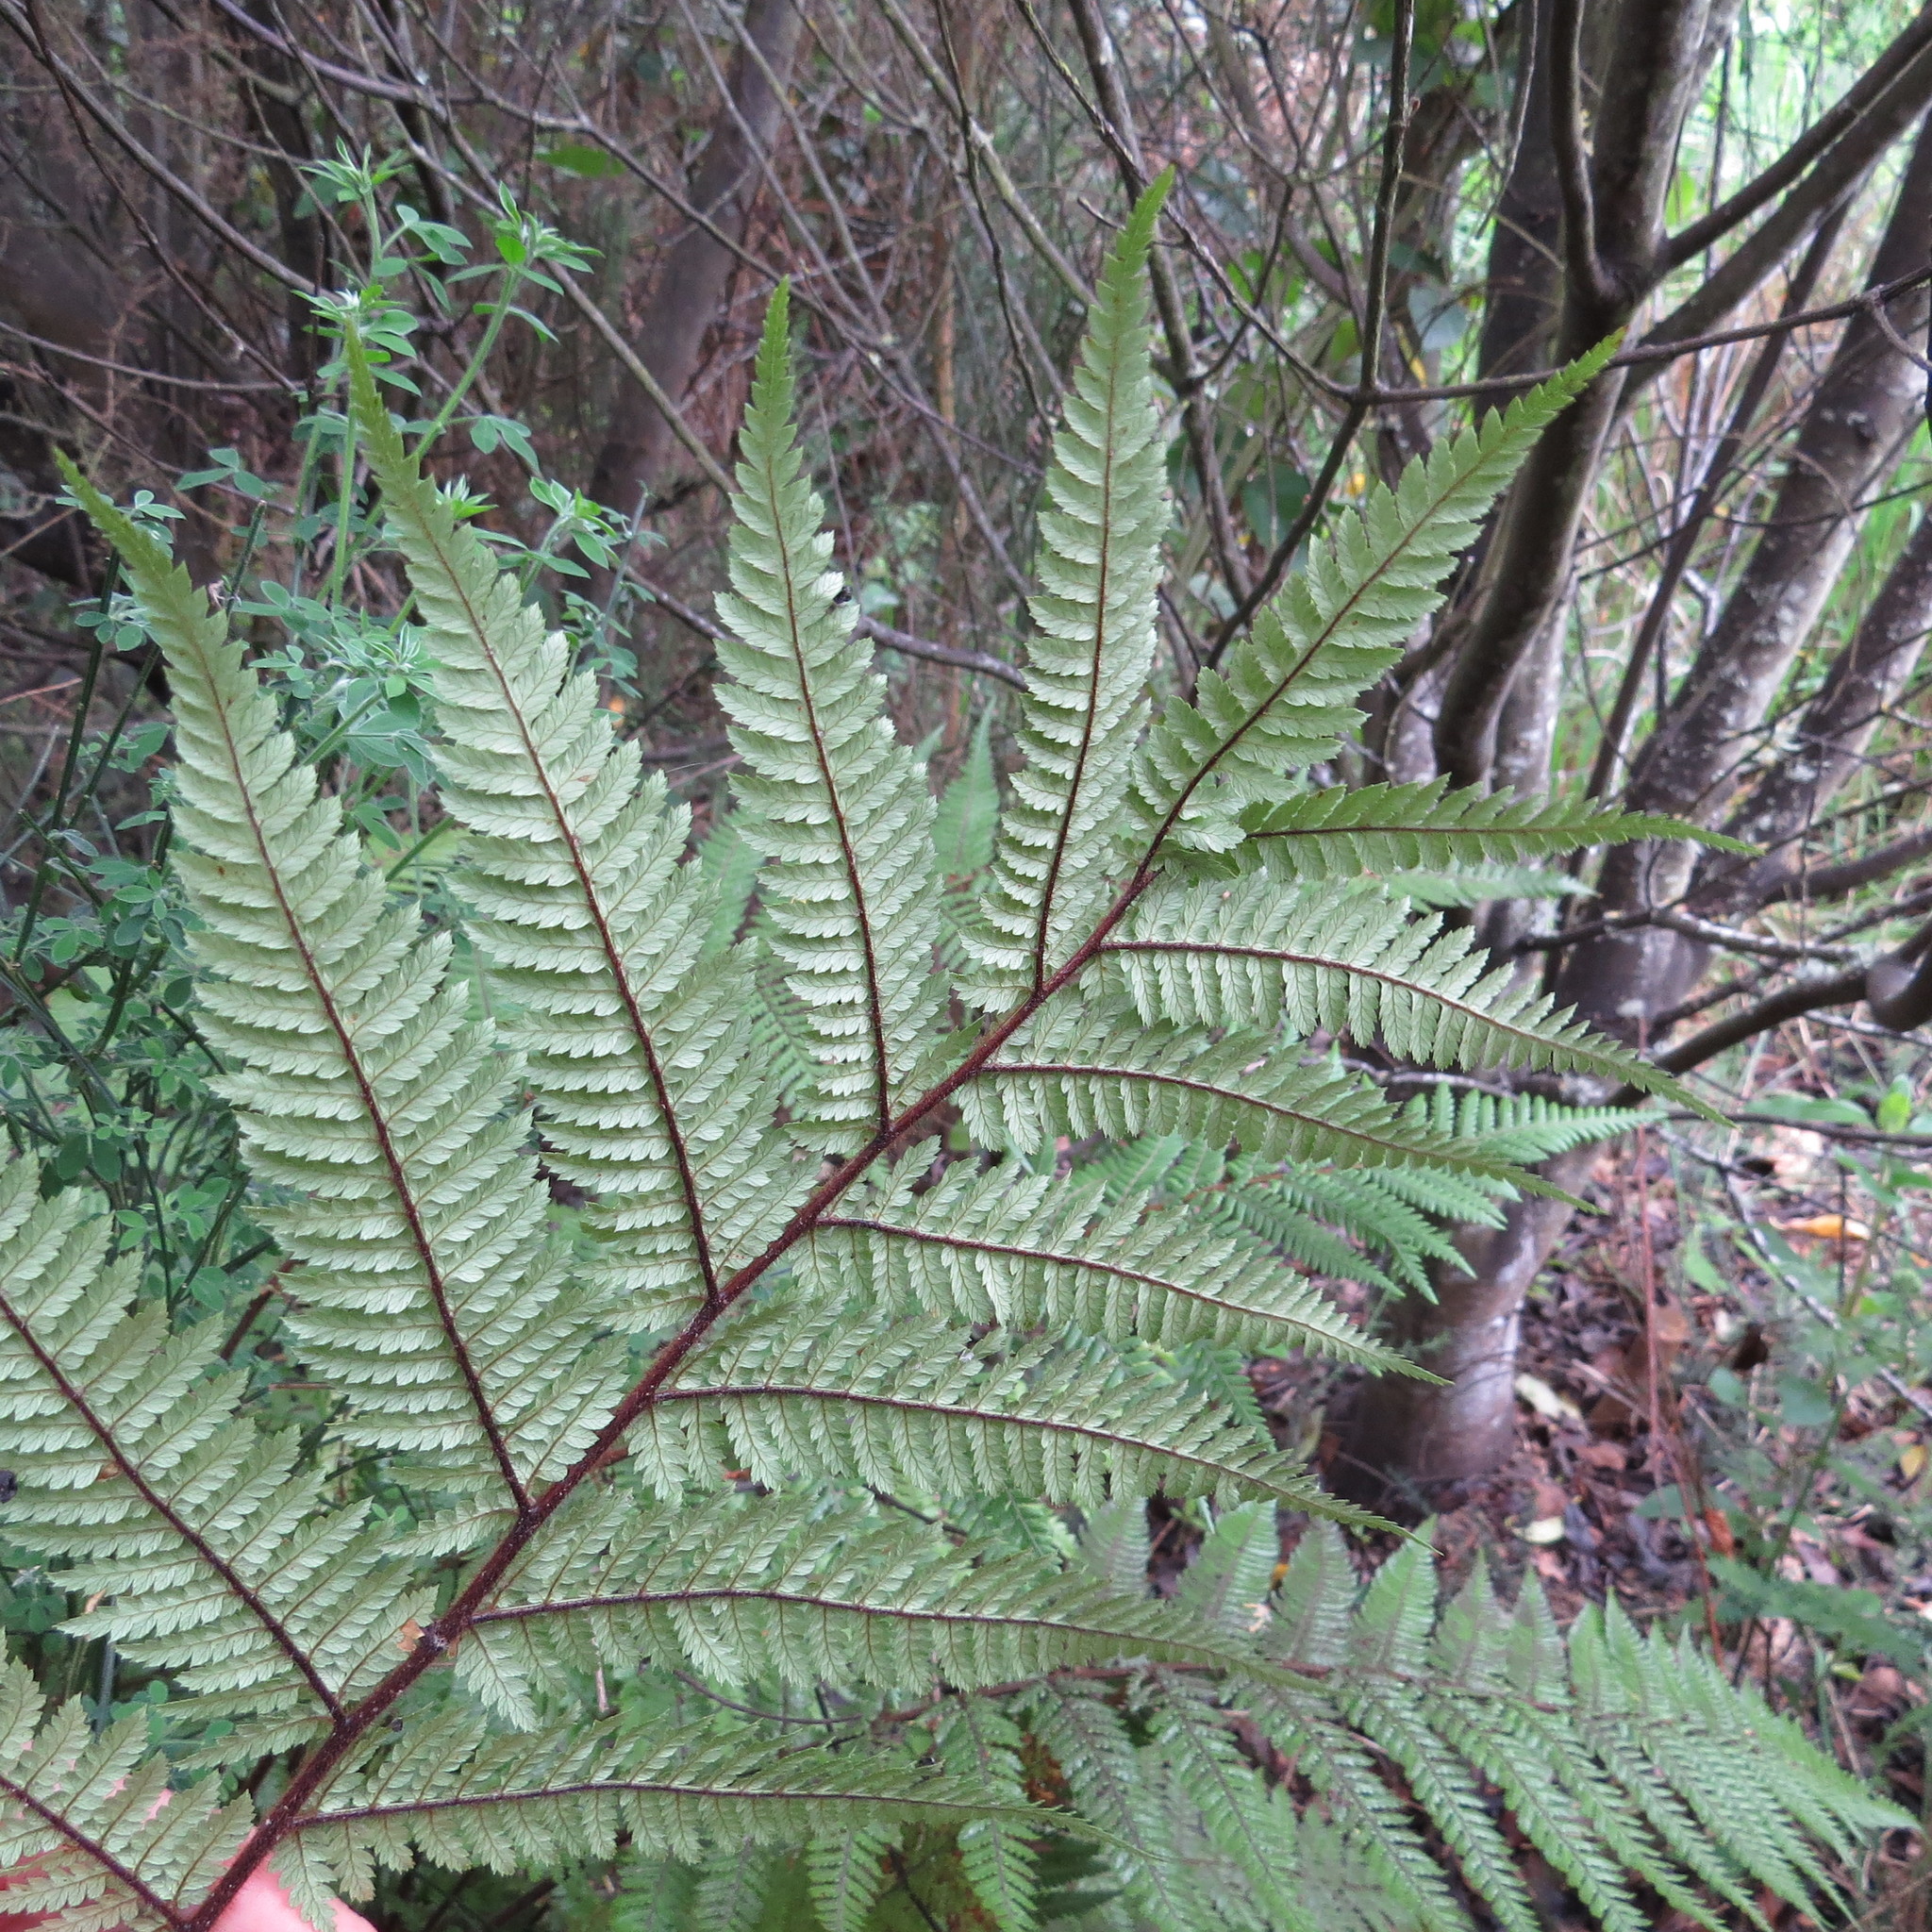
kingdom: Plantae
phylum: Tracheophyta
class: Polypodiopsida
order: Cyatheales
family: Dicksoniaceae
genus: Dicksonia
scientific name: Dicksonia squarrosa
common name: Hard treefern
